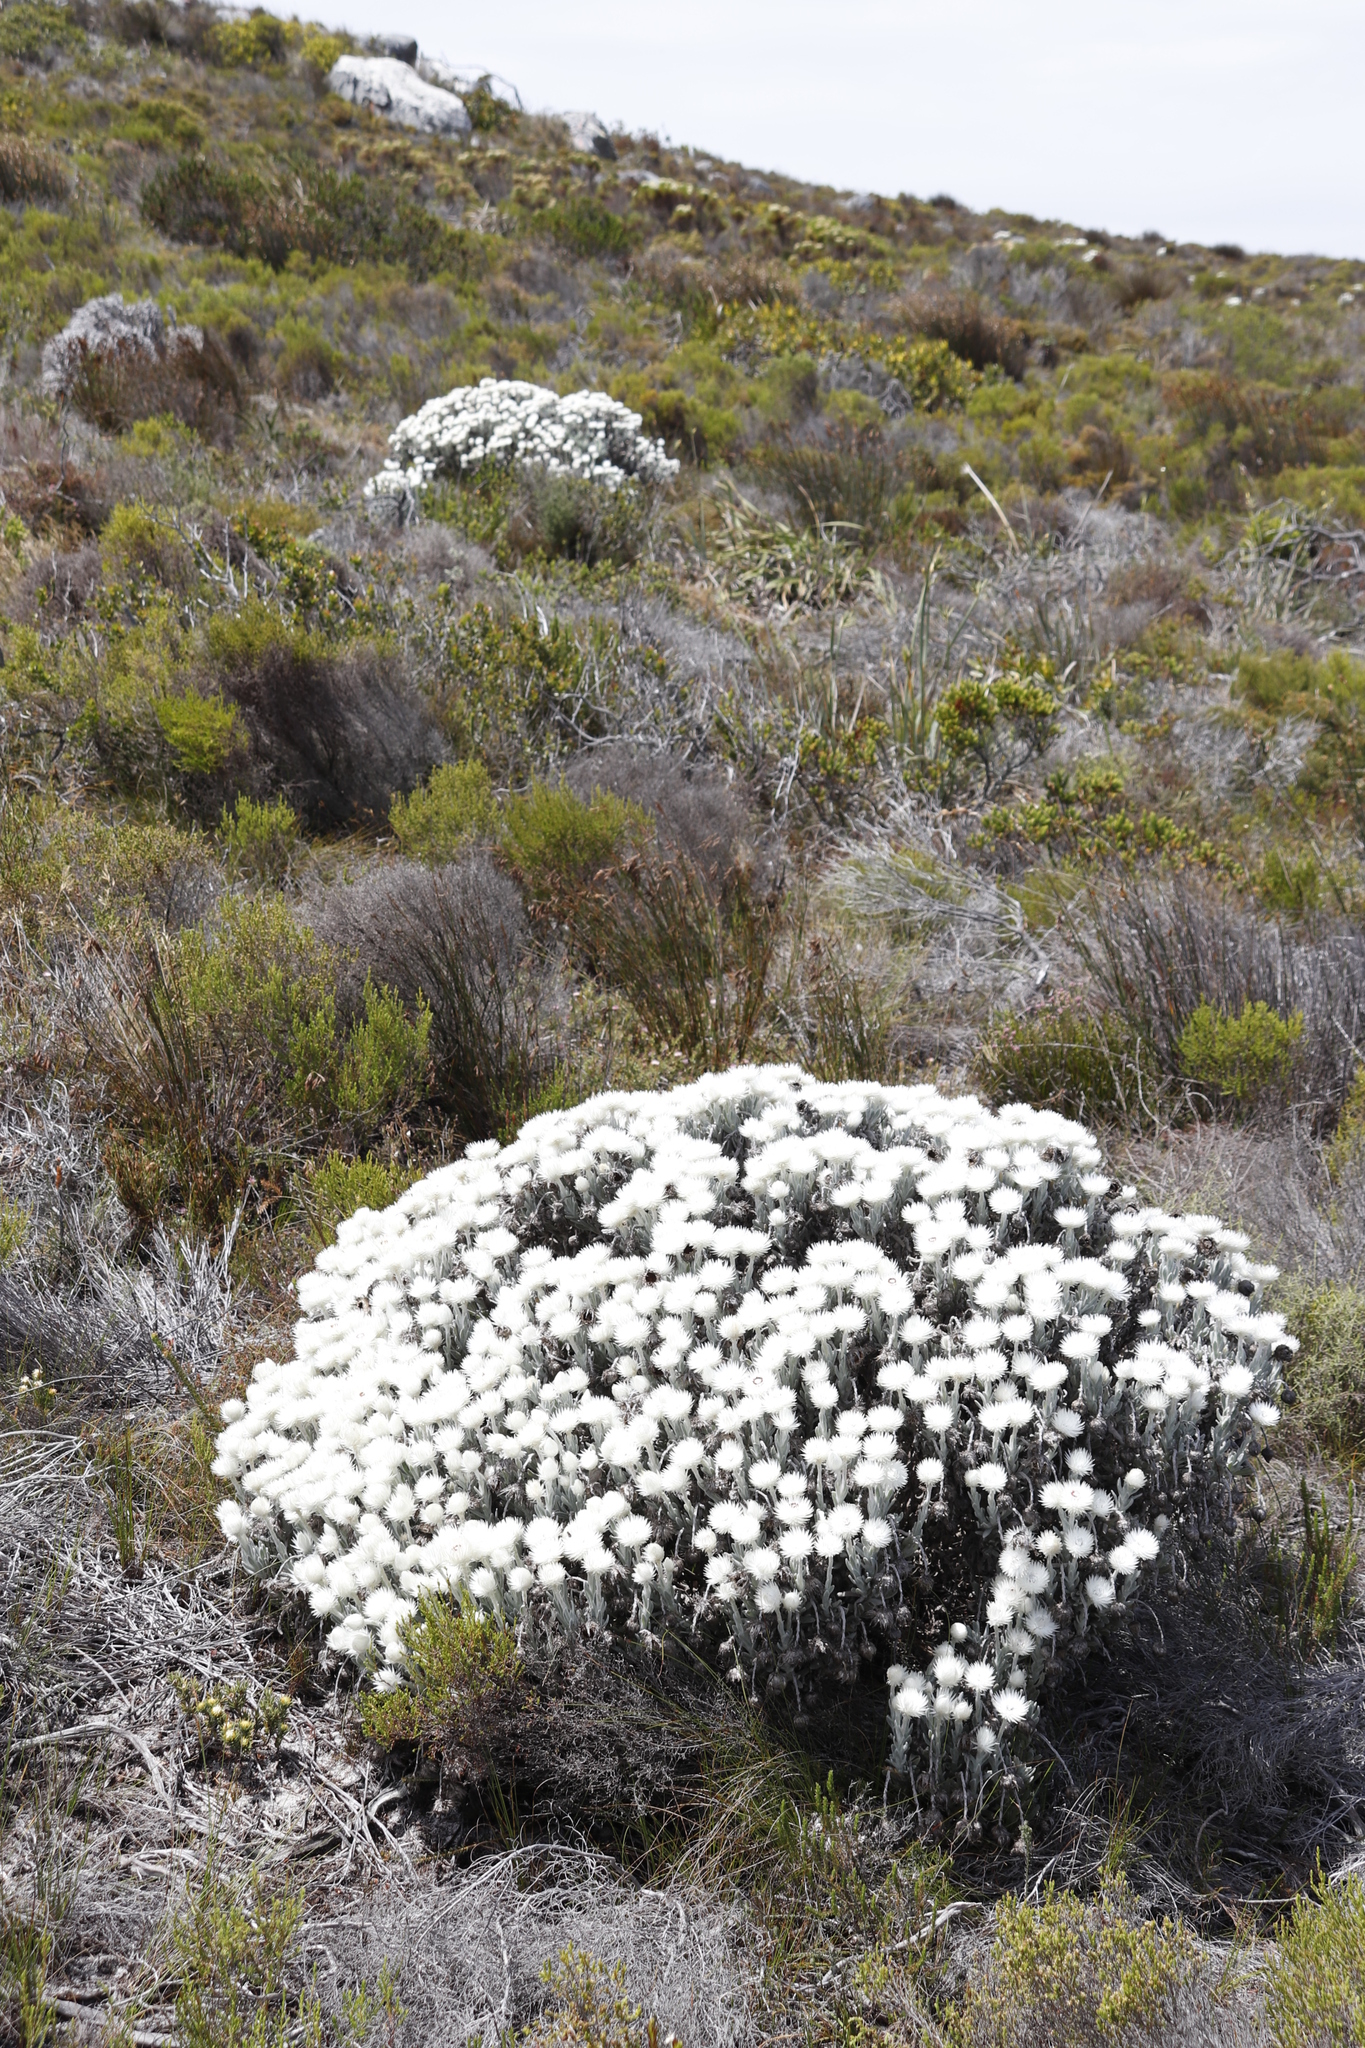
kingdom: Plantae
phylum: Tracheophyta
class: Magnoliopsida
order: Asterales
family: Asteraceae
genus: Syncarpha
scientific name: Syncarpha vestita
